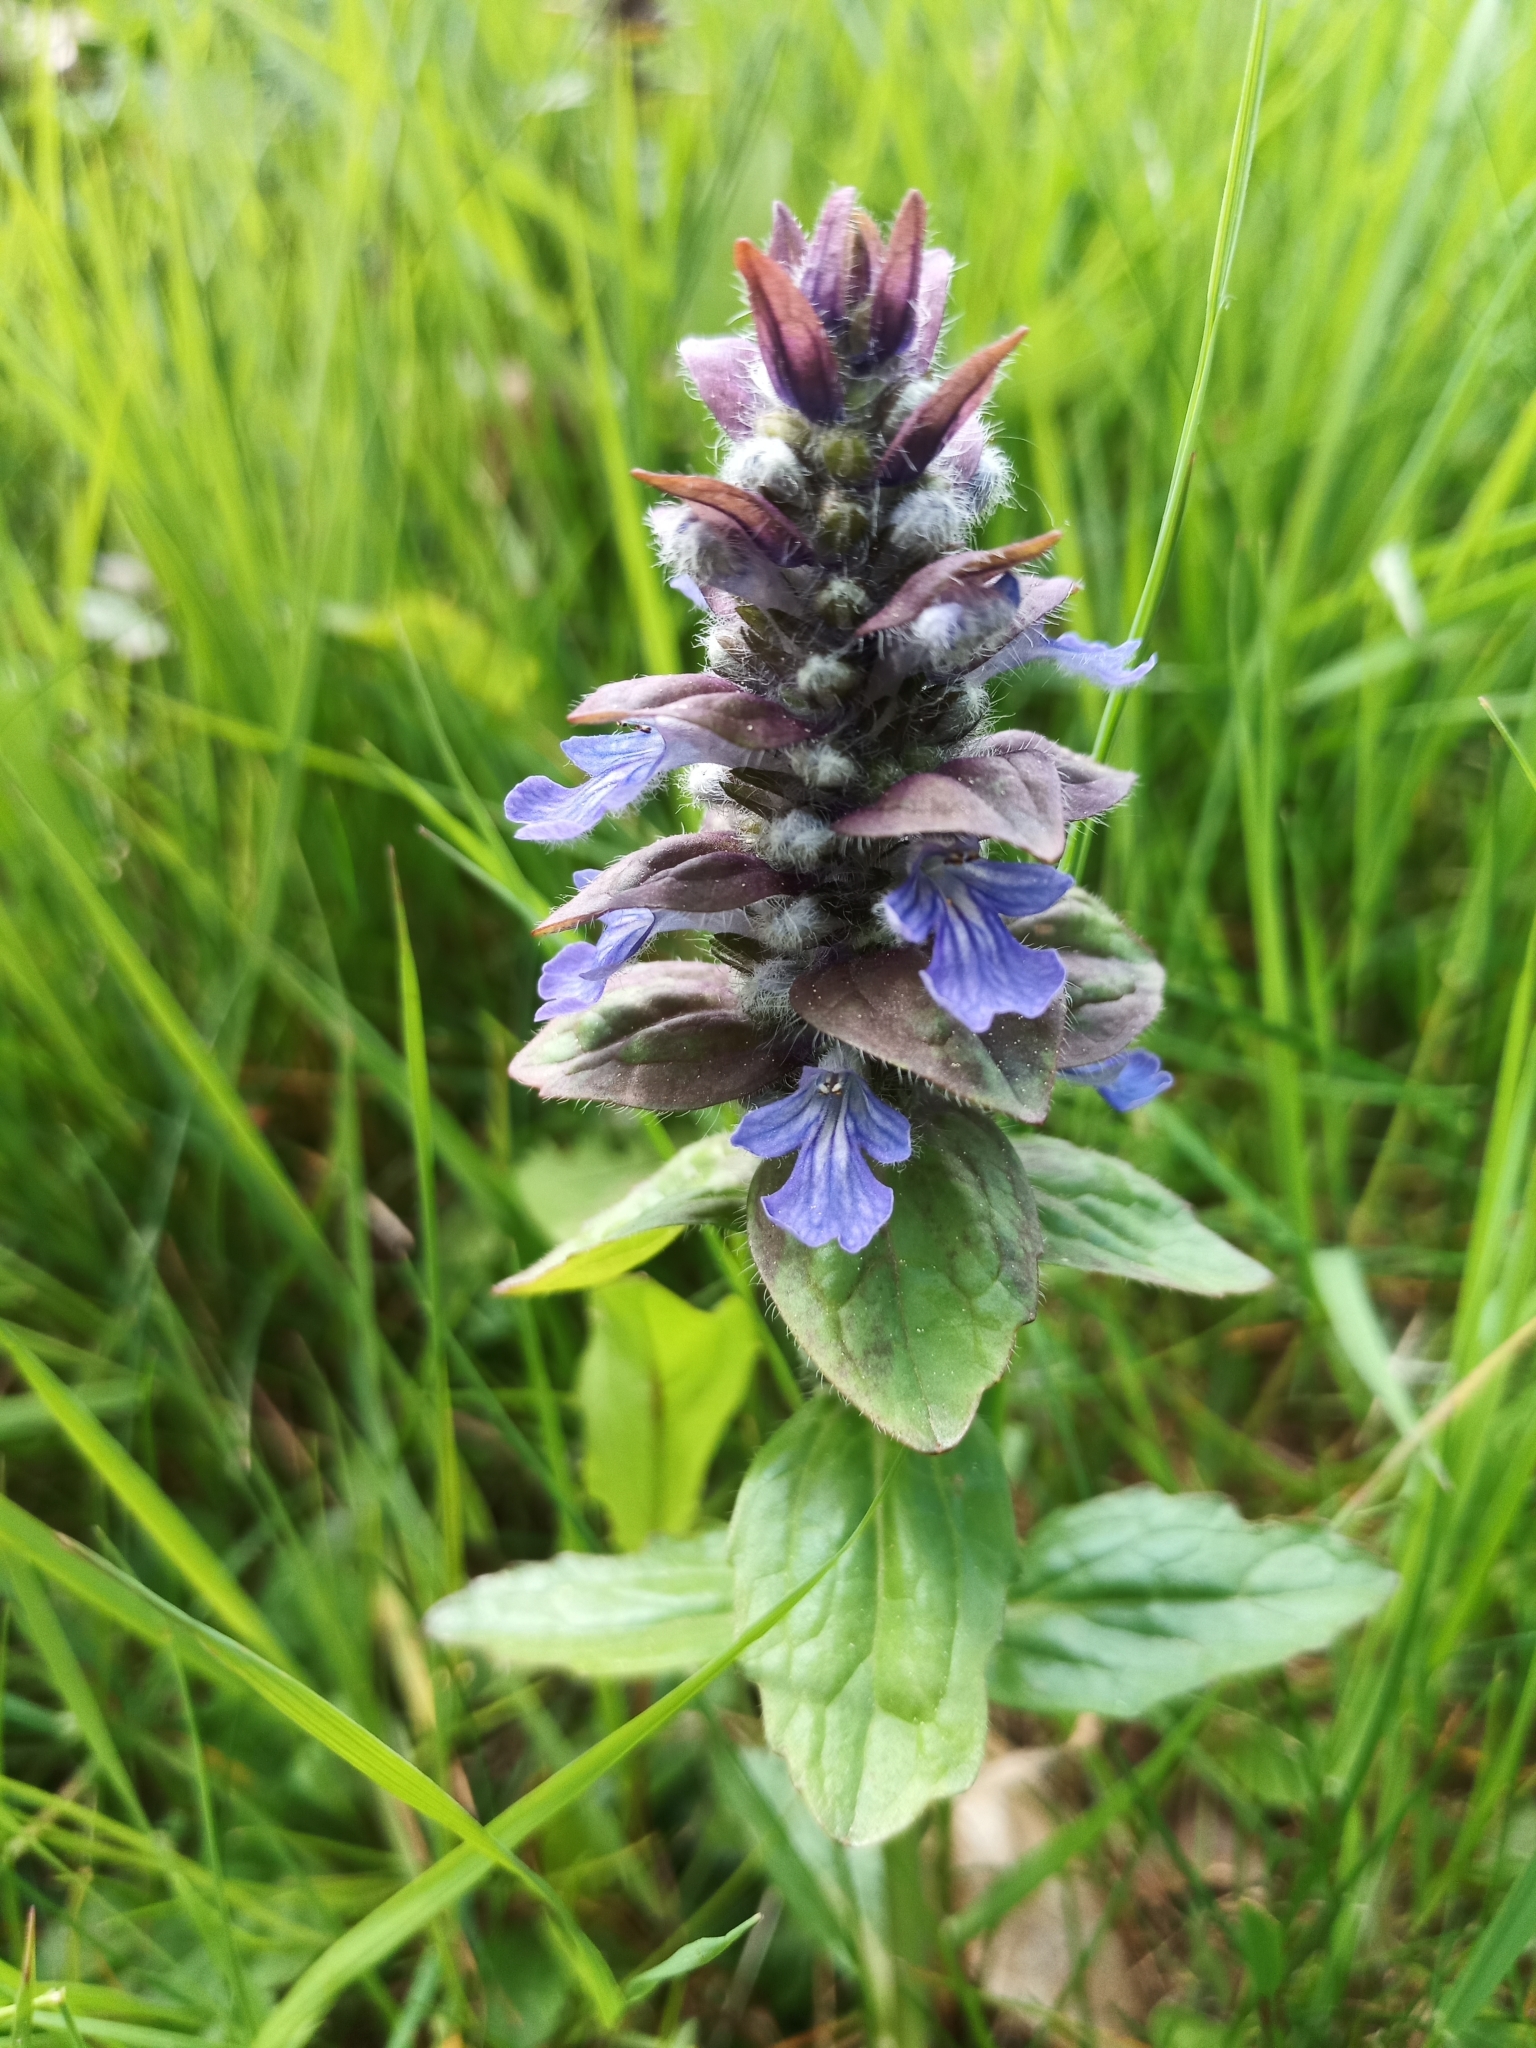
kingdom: Plantae
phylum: Tracheophyta
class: Magnoliopsida
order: Lamiales
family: Lamiaceae
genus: Ajuga
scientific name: Ajuga reptans
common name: Bugle
